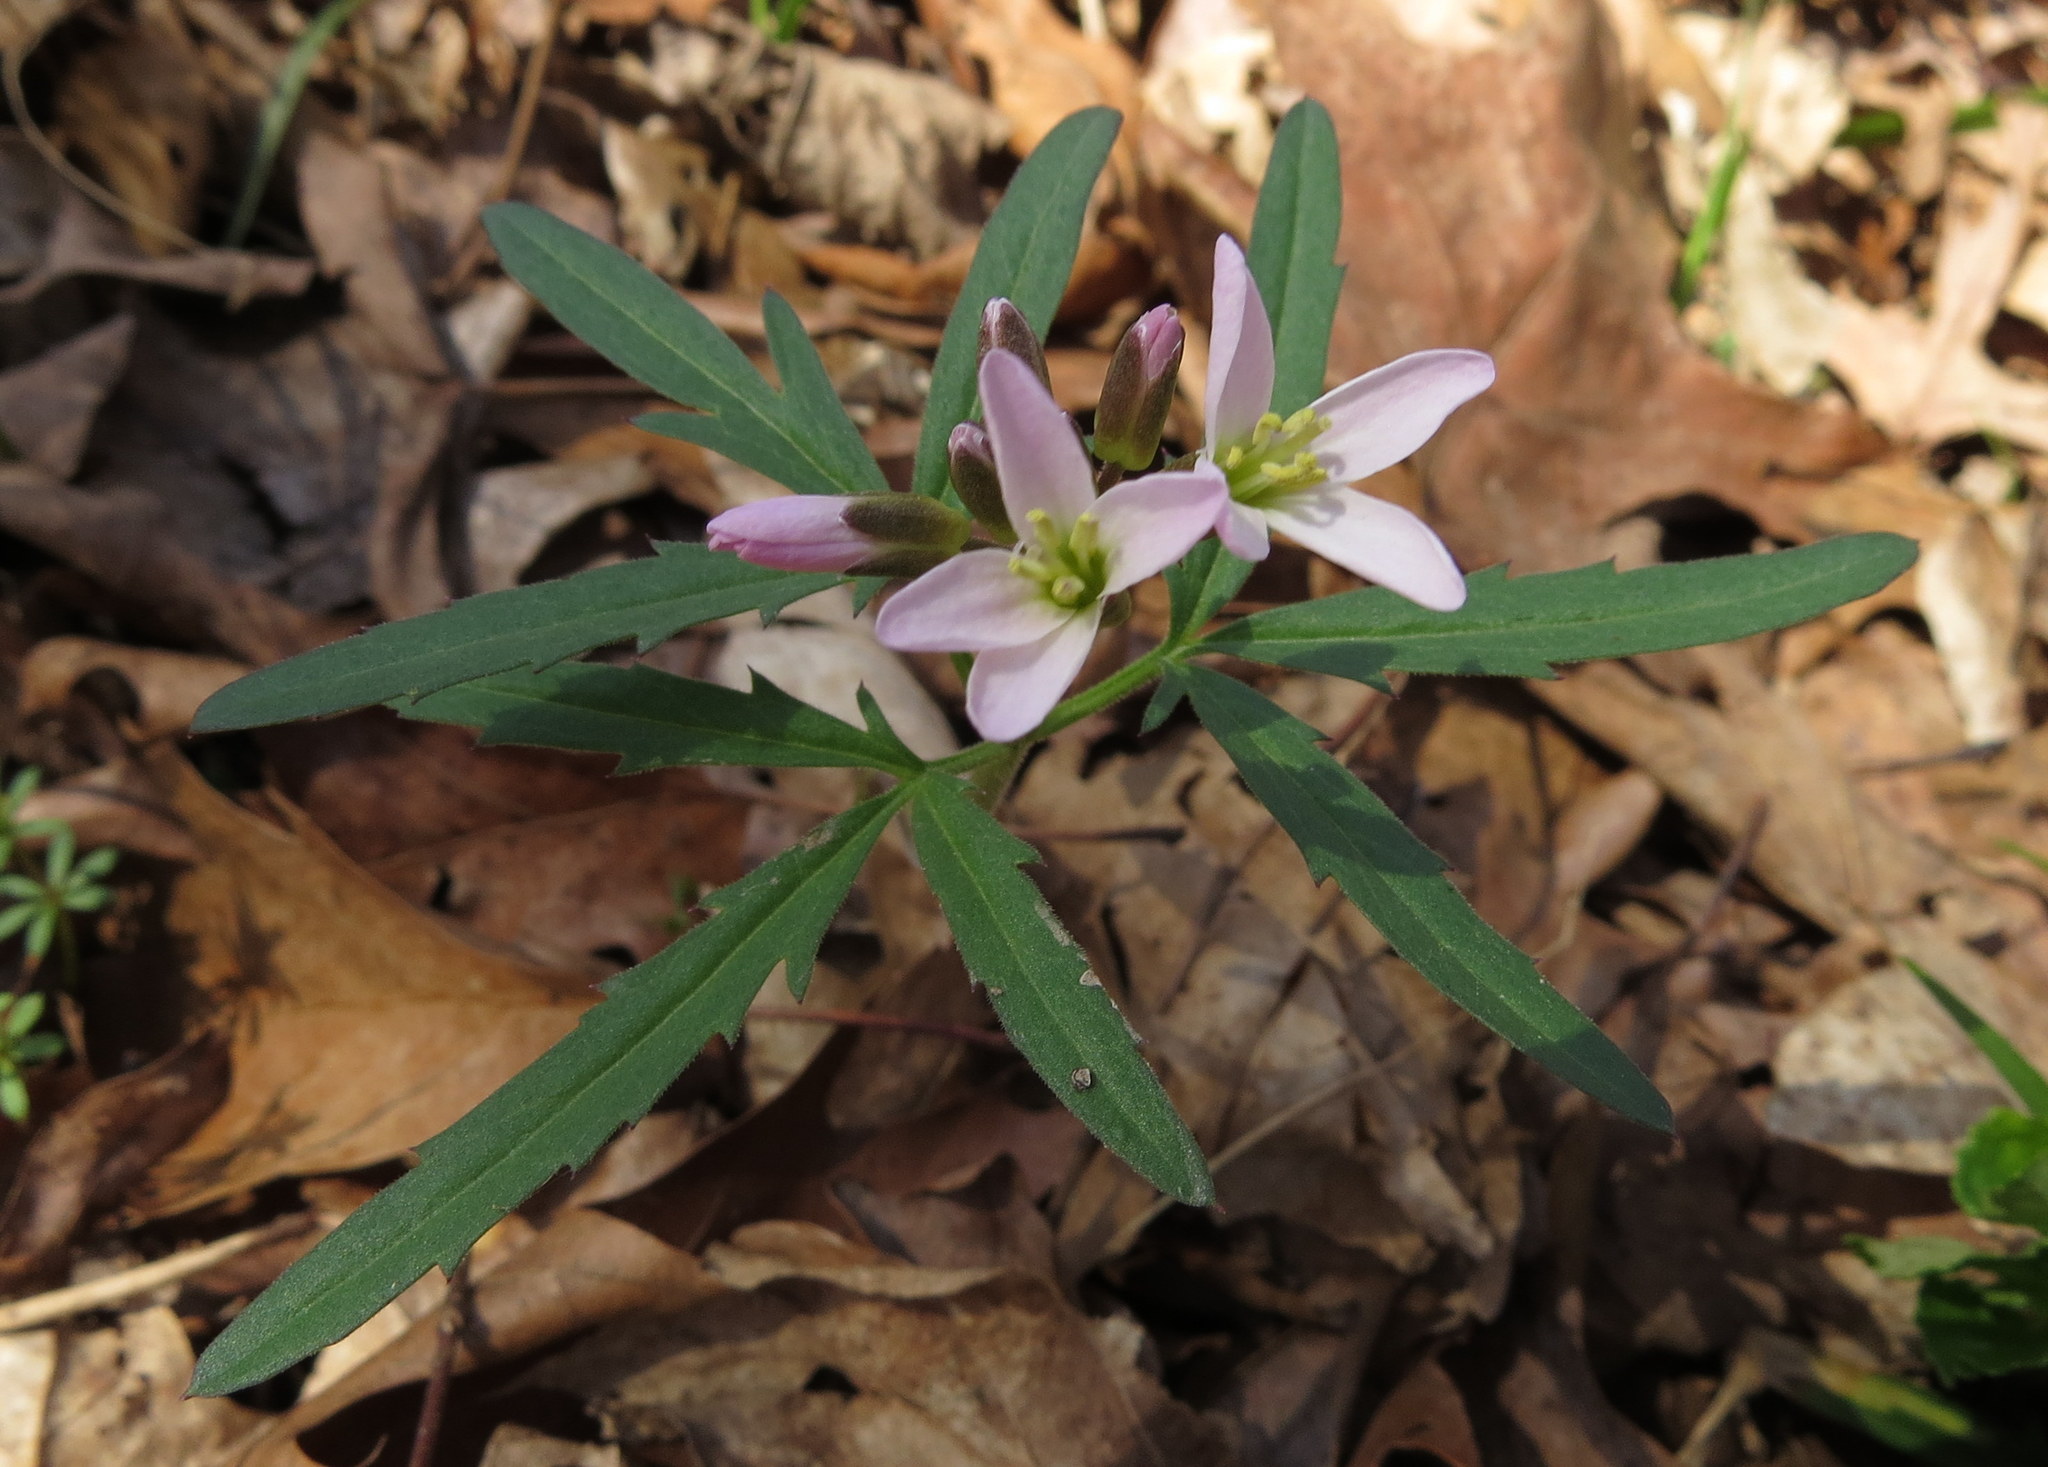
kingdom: Plantae
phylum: Tracheophyta
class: Magnoliopsida
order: Brassicales
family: Brassicaceae
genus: Cardamine
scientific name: Cardamine concatenata
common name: Cut-leaf toothcup
